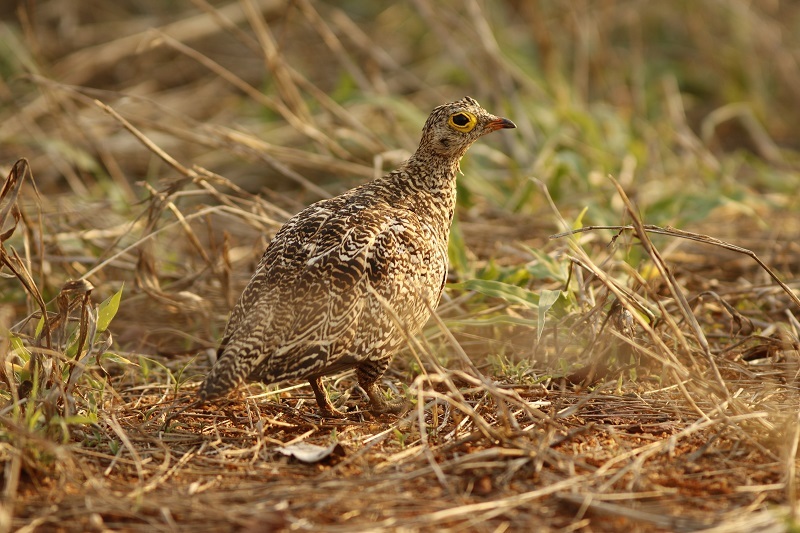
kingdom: Animalia
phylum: Chordata
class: Aves
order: Pteroclidiformes
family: Pteroclididae
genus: Pterocles
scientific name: Pterocles bicinctus
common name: Double-banded sandgrouse
